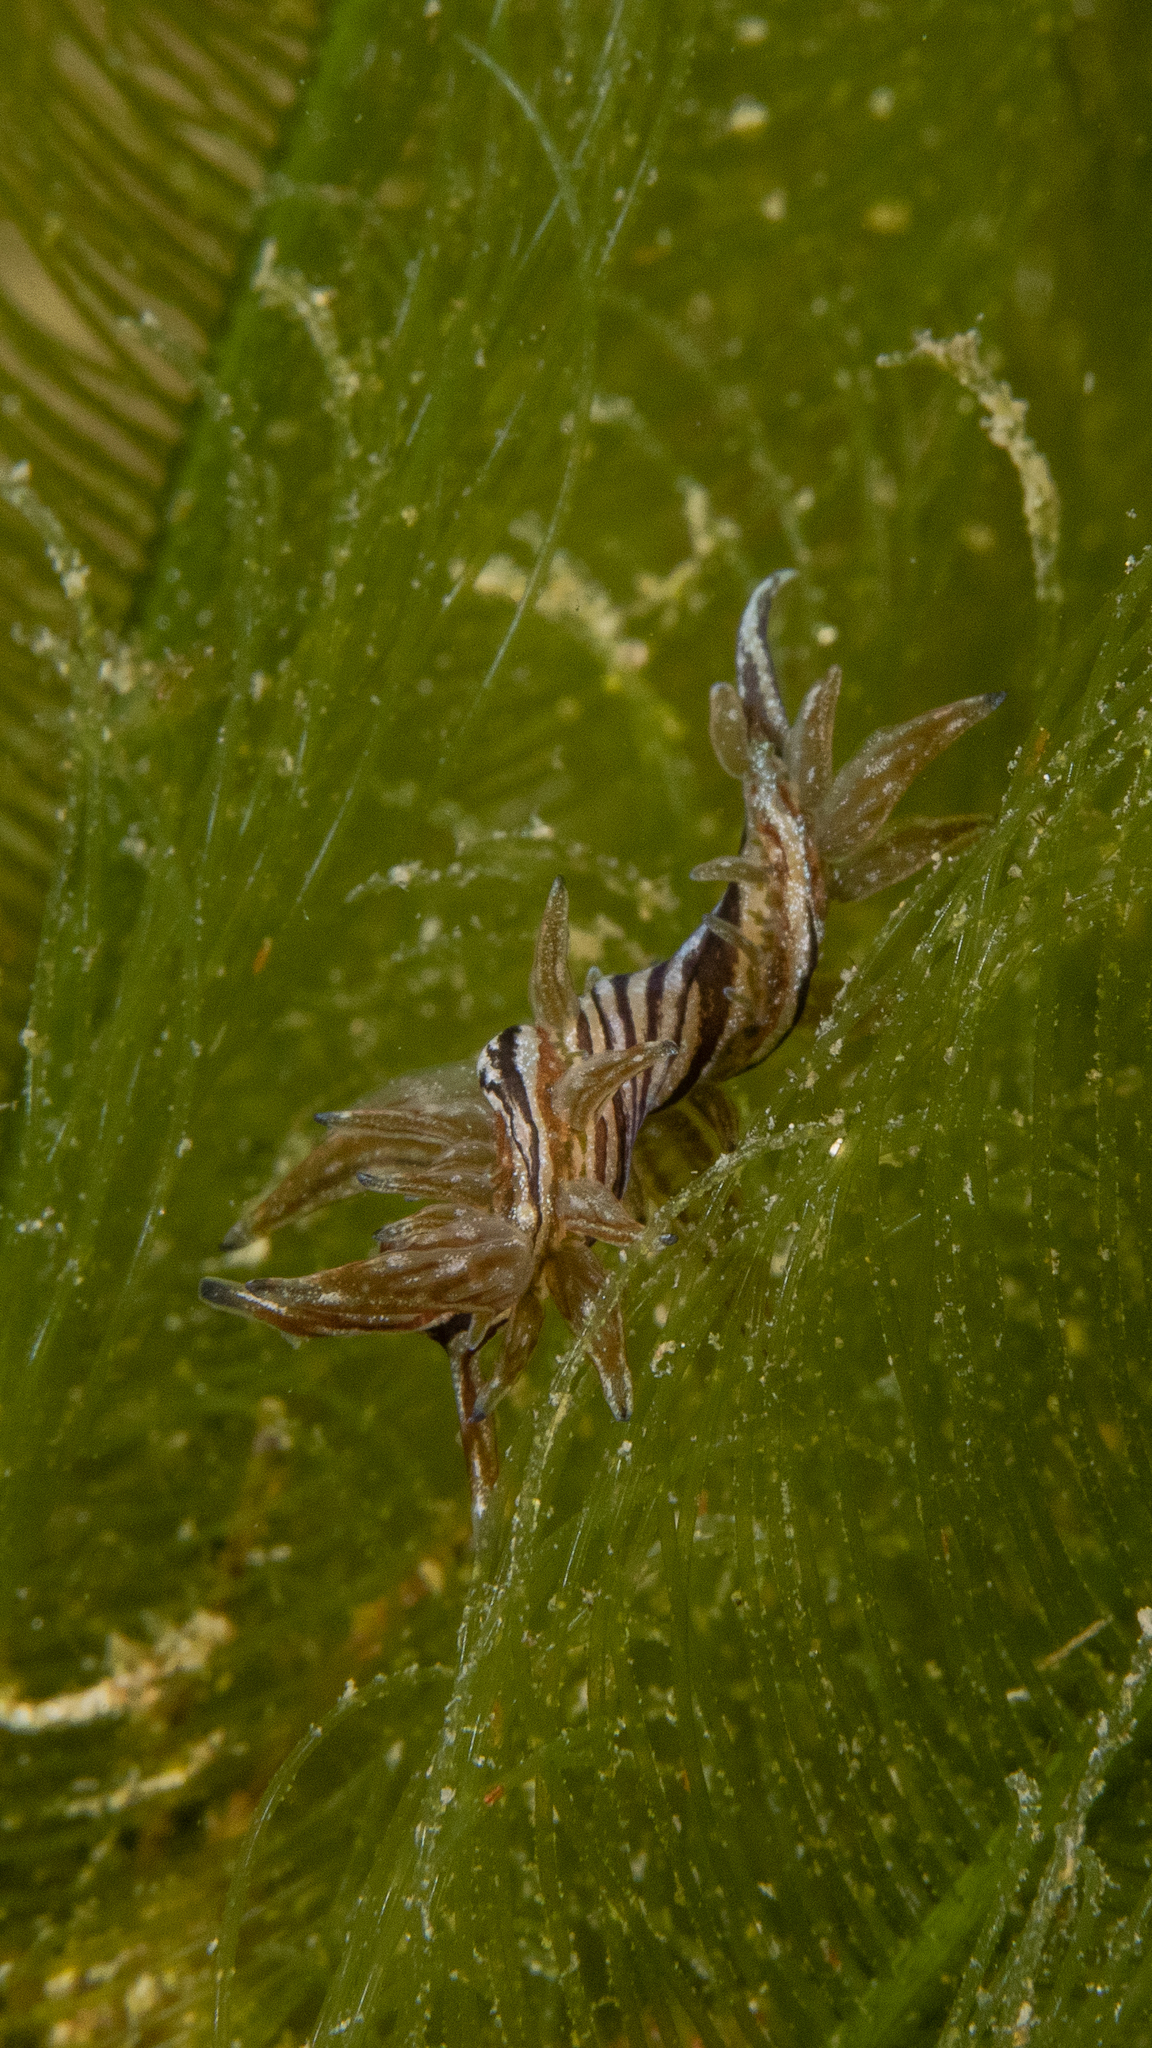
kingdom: Animalia
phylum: Mollusca
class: Gastropoda
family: Hermaeidae
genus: Aplysiopsis
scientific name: Aplysiopsis formosa
